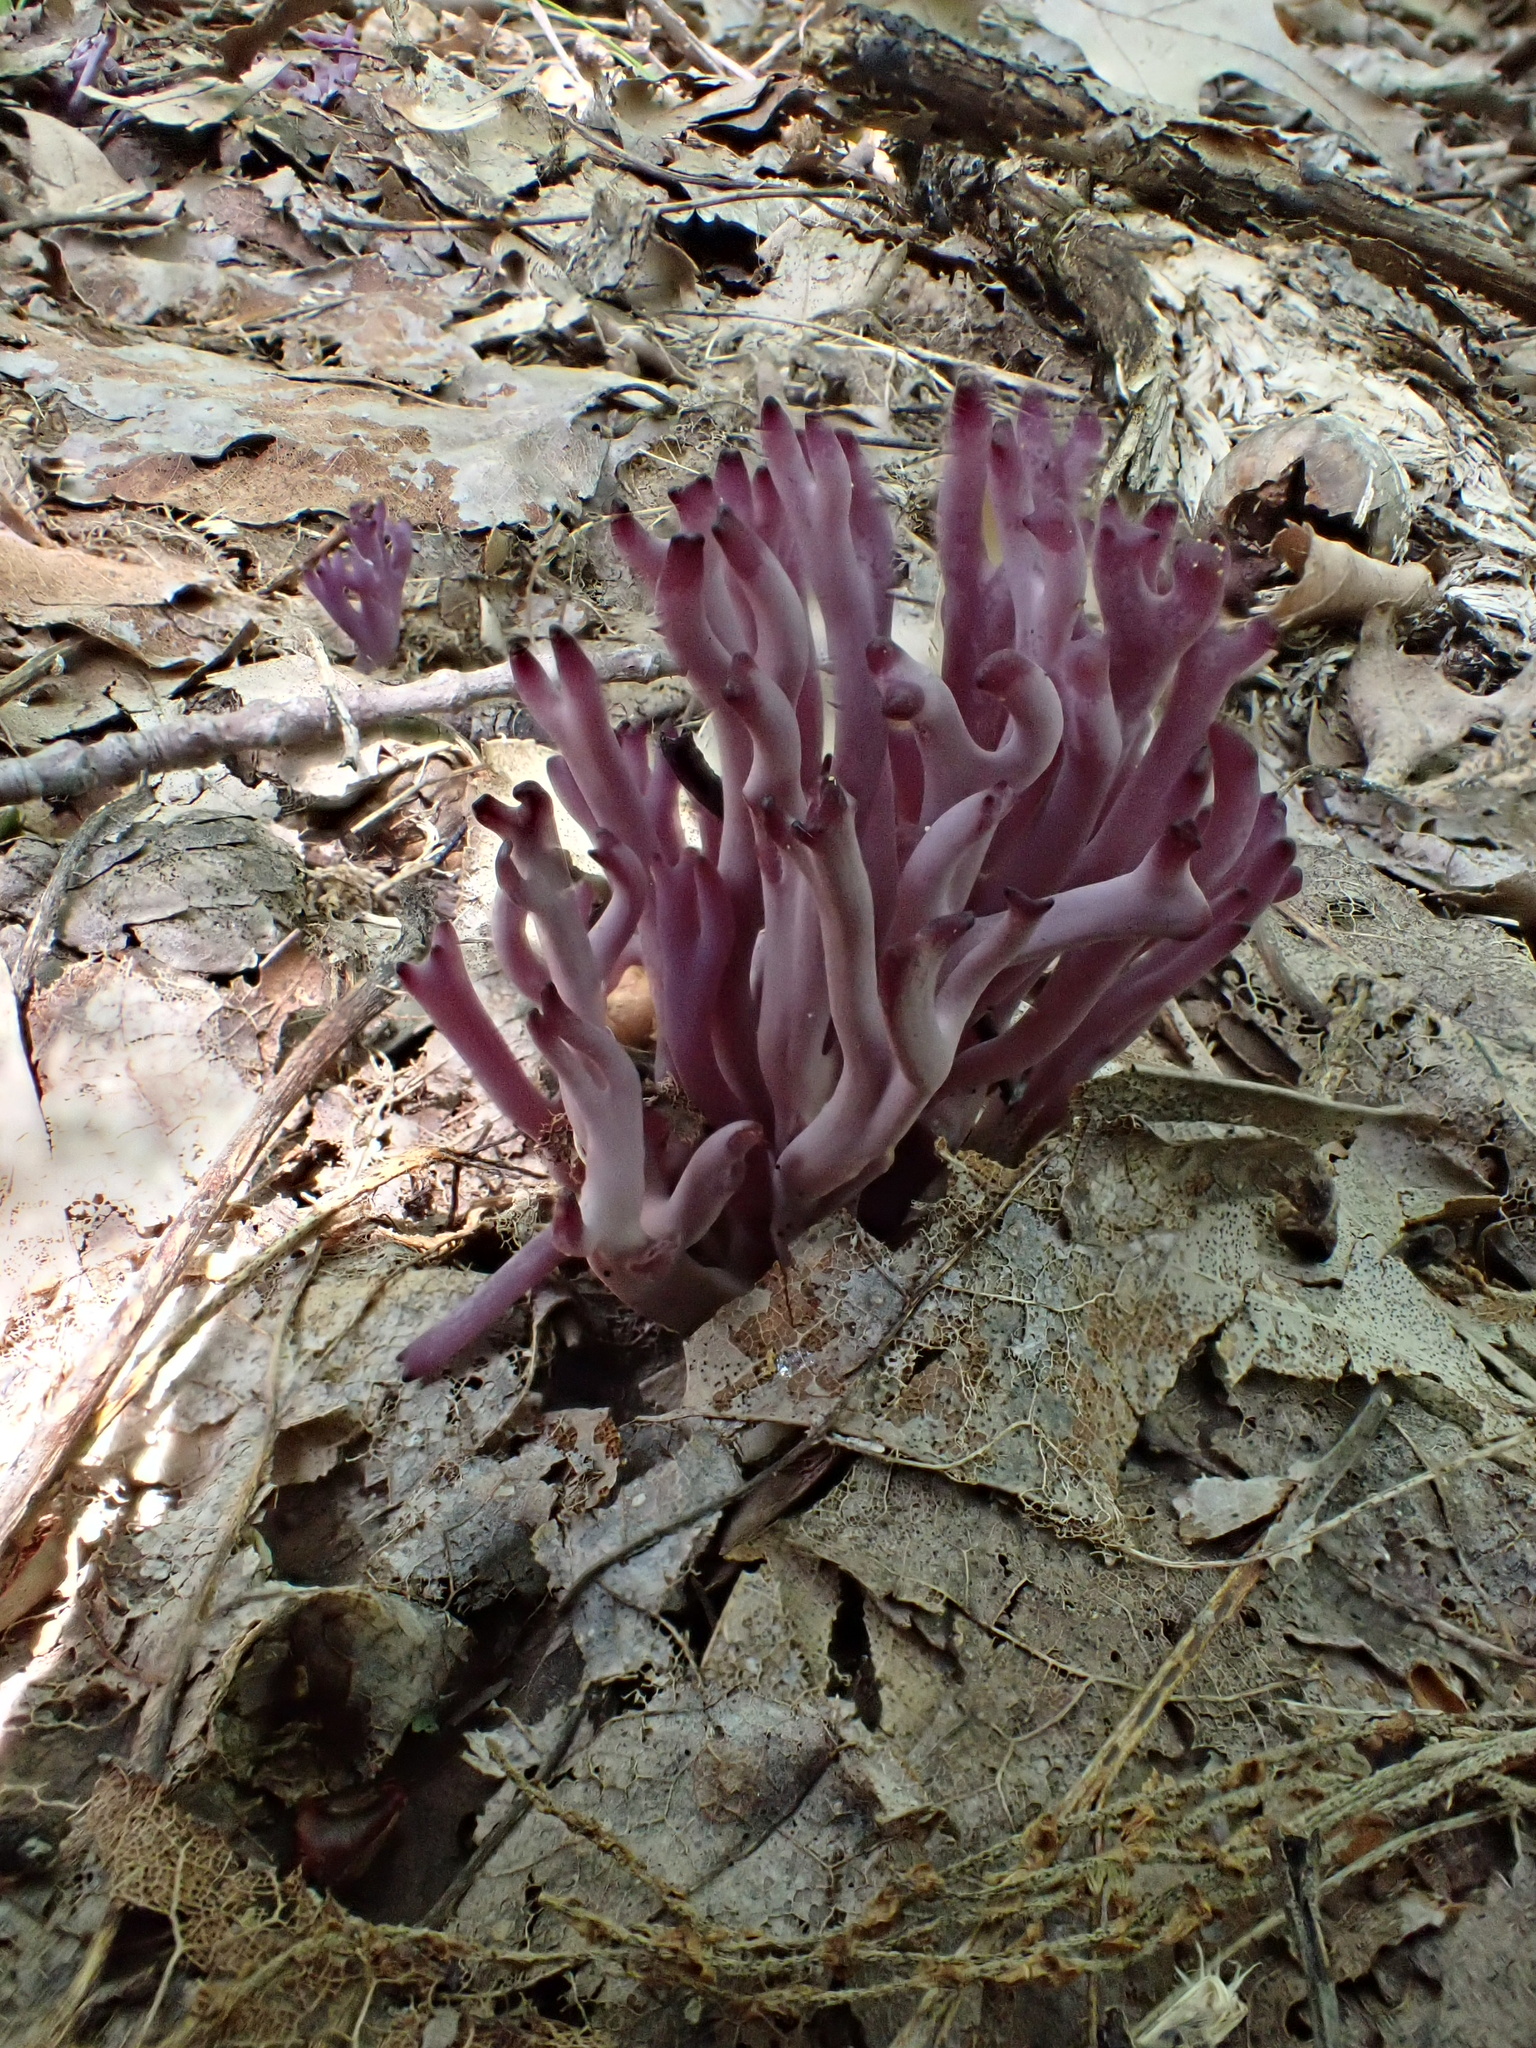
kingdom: Fungi
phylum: Basidiomycota
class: Agaricomycetes
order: Agaricales
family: Clavariaceae
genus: Clavaria
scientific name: Clavaria zollingeri
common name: Violet coral
